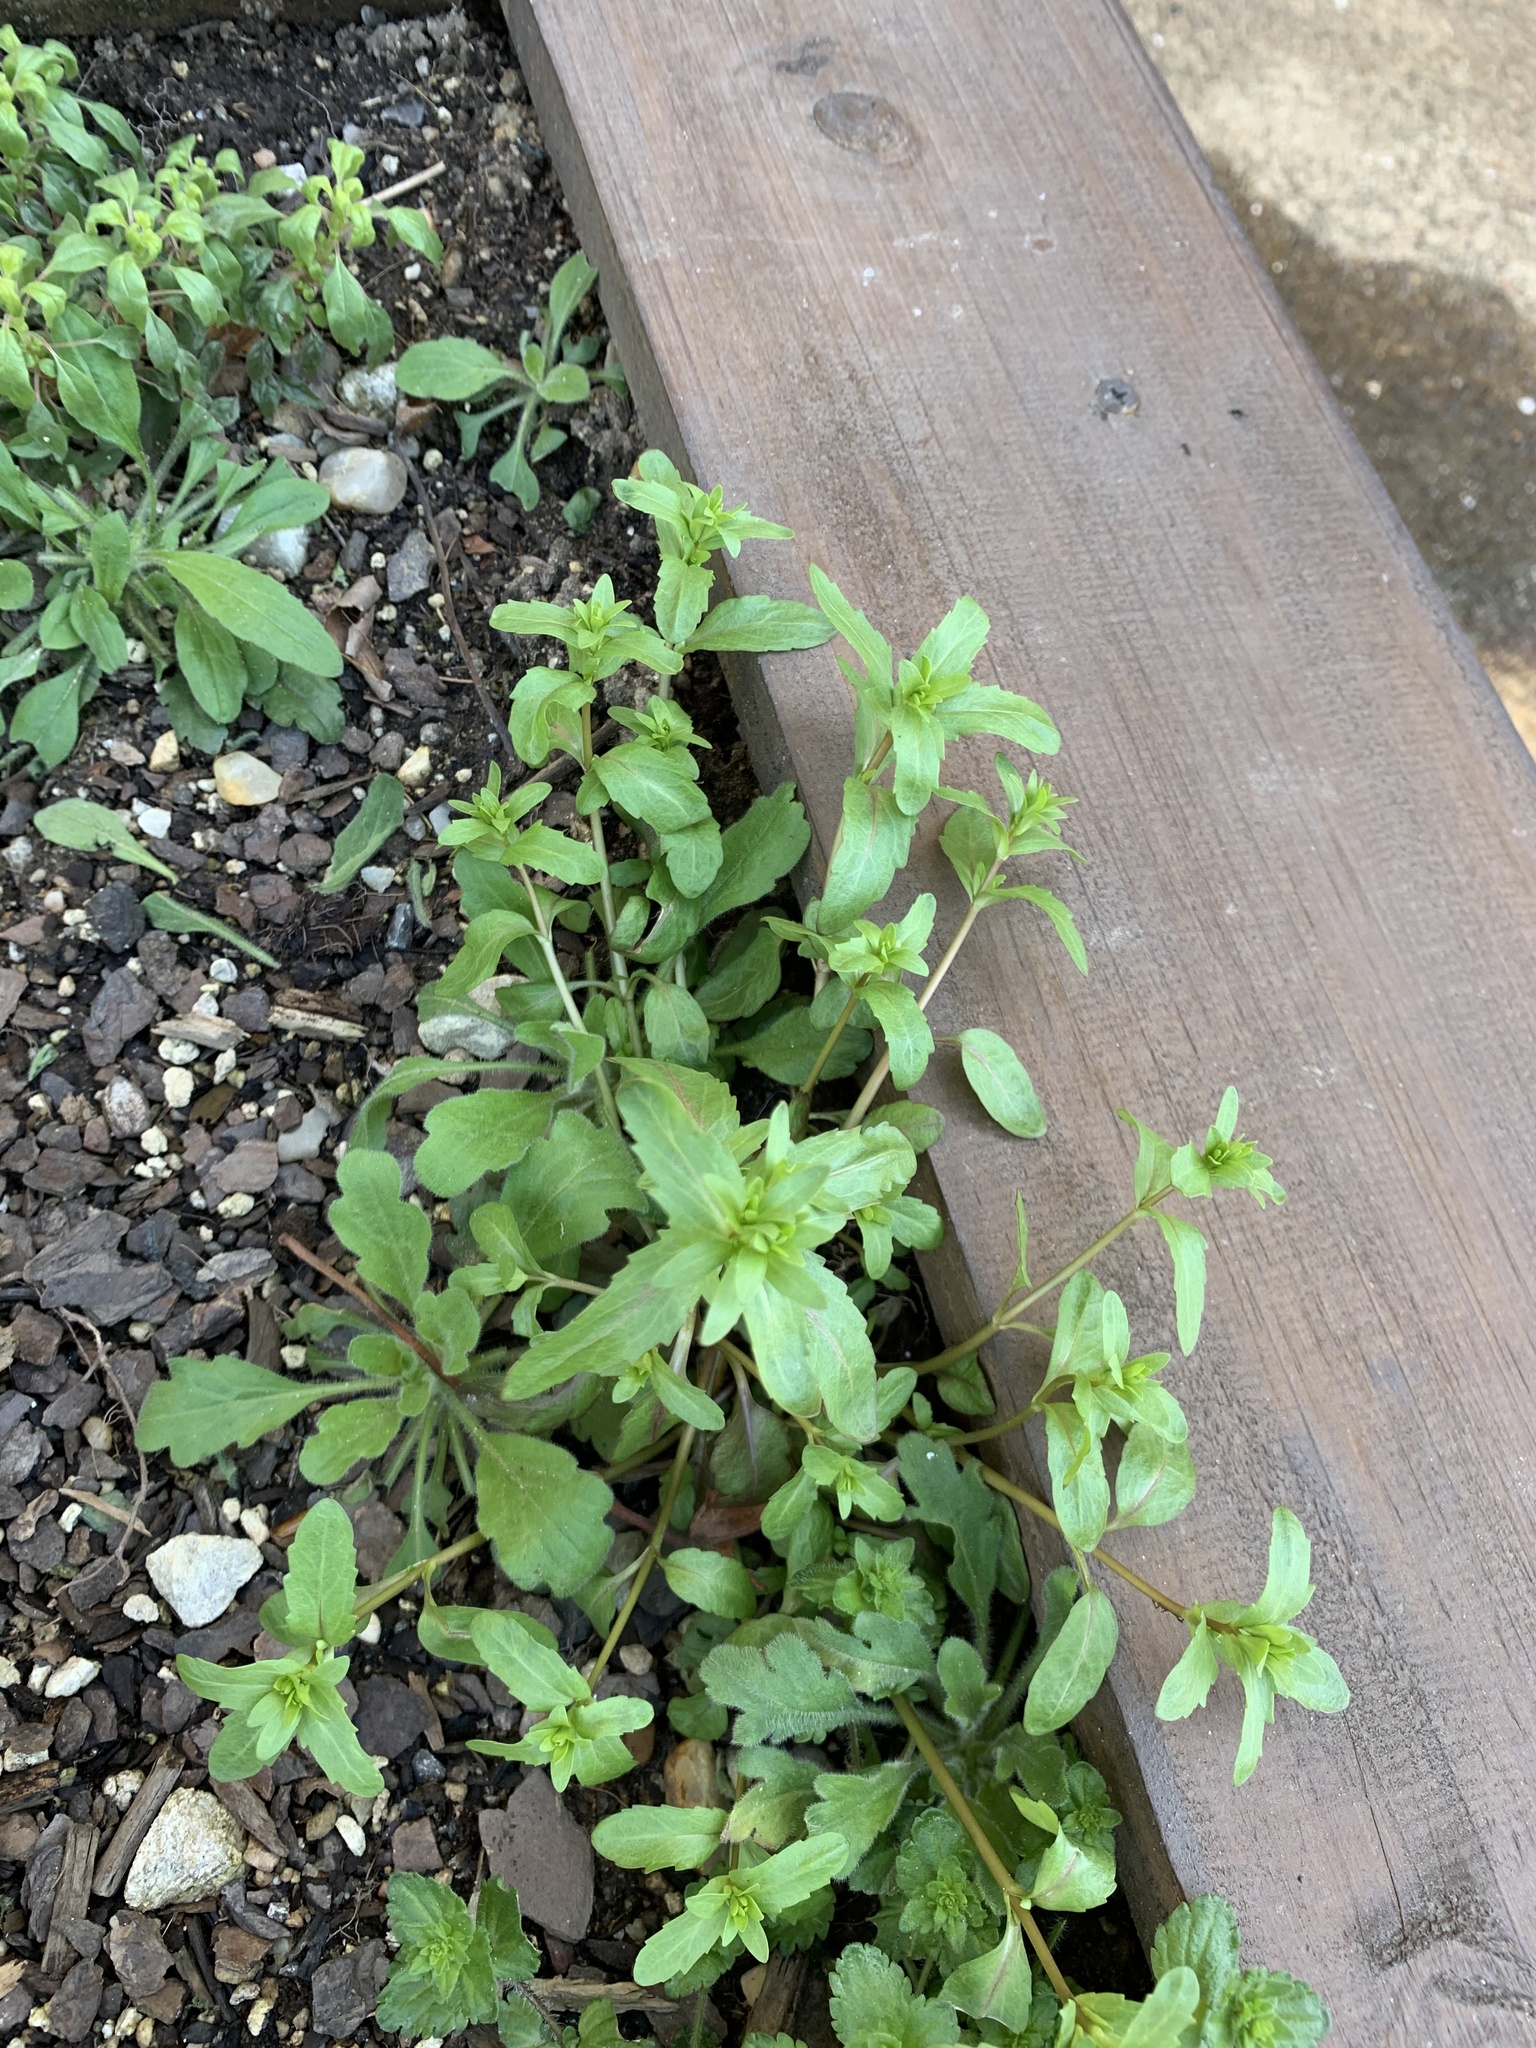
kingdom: Plantae
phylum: Tracheophyta
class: Magnoliopsida
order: Lamiales
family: Plantaginaceae
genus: Veronica
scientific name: Veronica peregrina
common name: Neckweed
